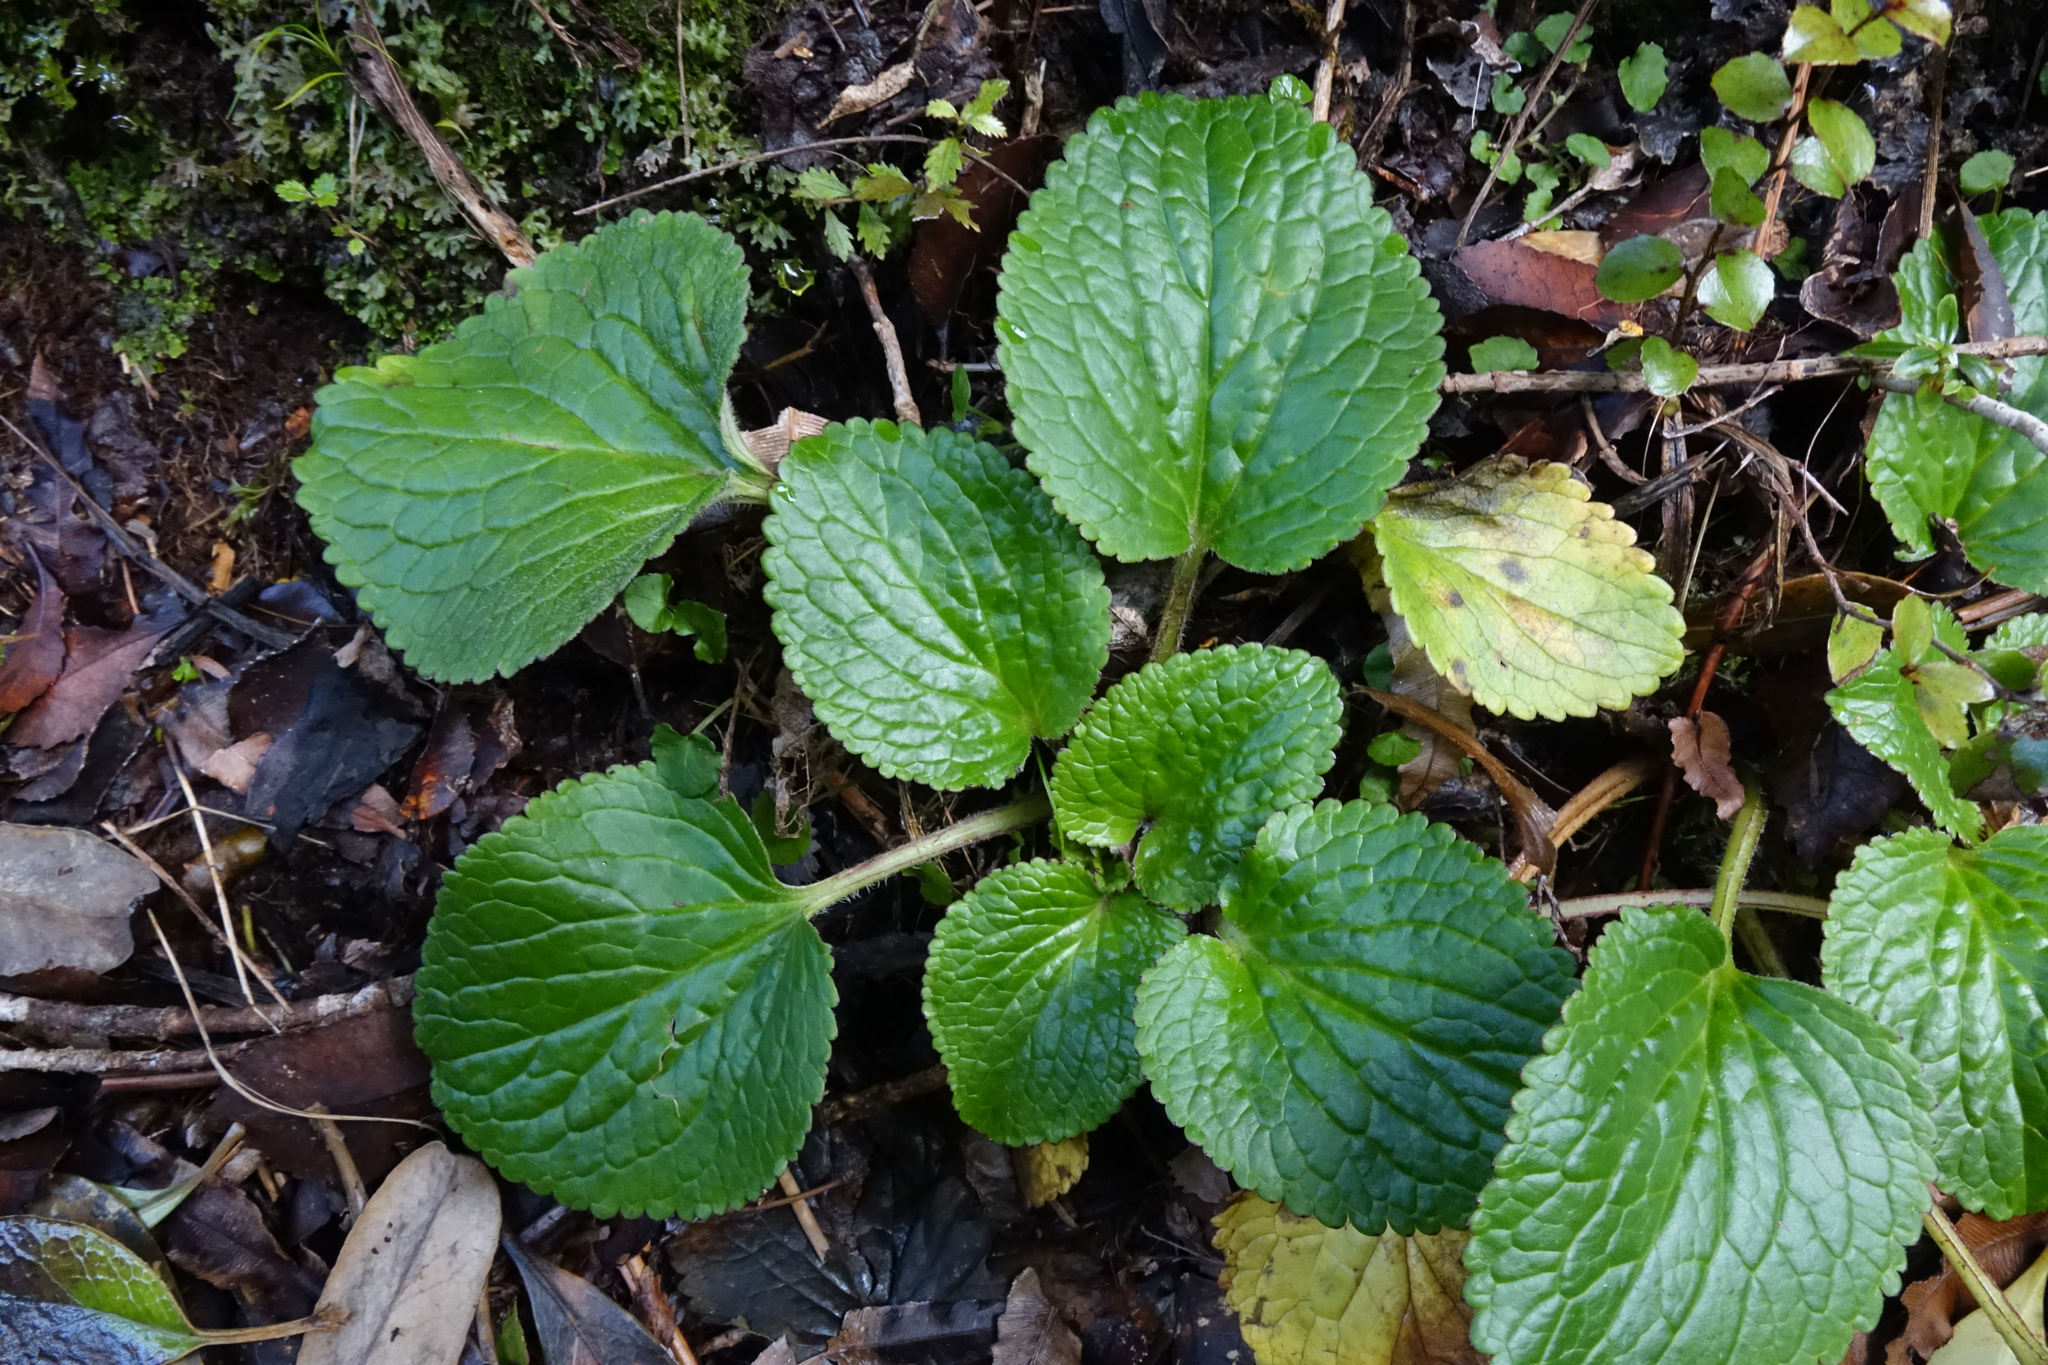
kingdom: Plantae
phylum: Tracheophyta
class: Magnoliopsida
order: Lamiales
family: Plantaginaceae
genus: Ourisia
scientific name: Ourisia macrophylla
